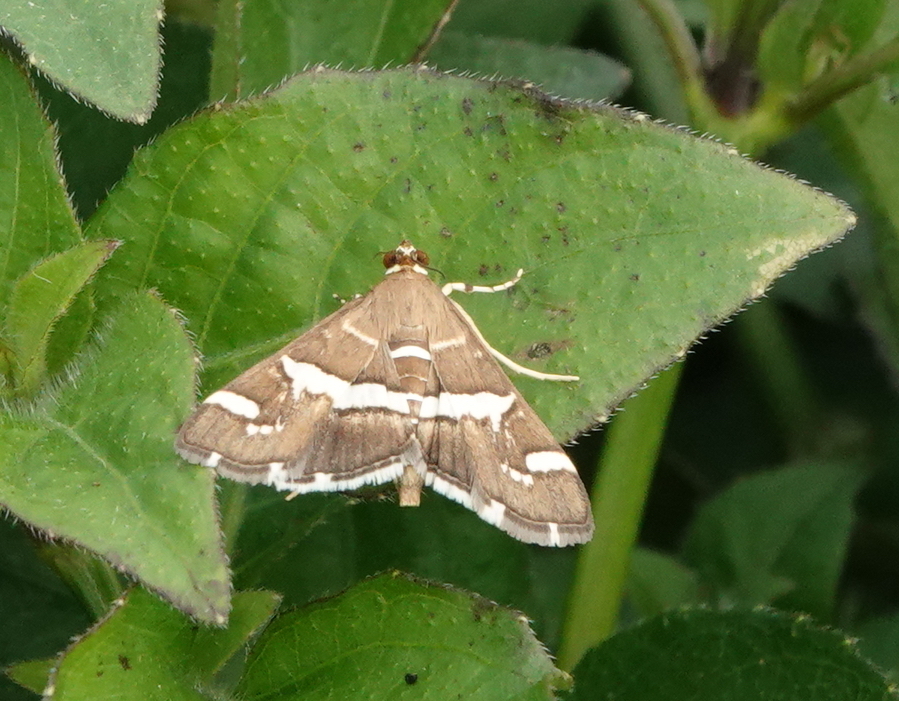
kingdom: Animalia
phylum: Arthropoda
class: Insecta
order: Lepidoptera
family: Crambidae
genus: Spoladea
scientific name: Spoladea recurvalis
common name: Beet webworm moth
